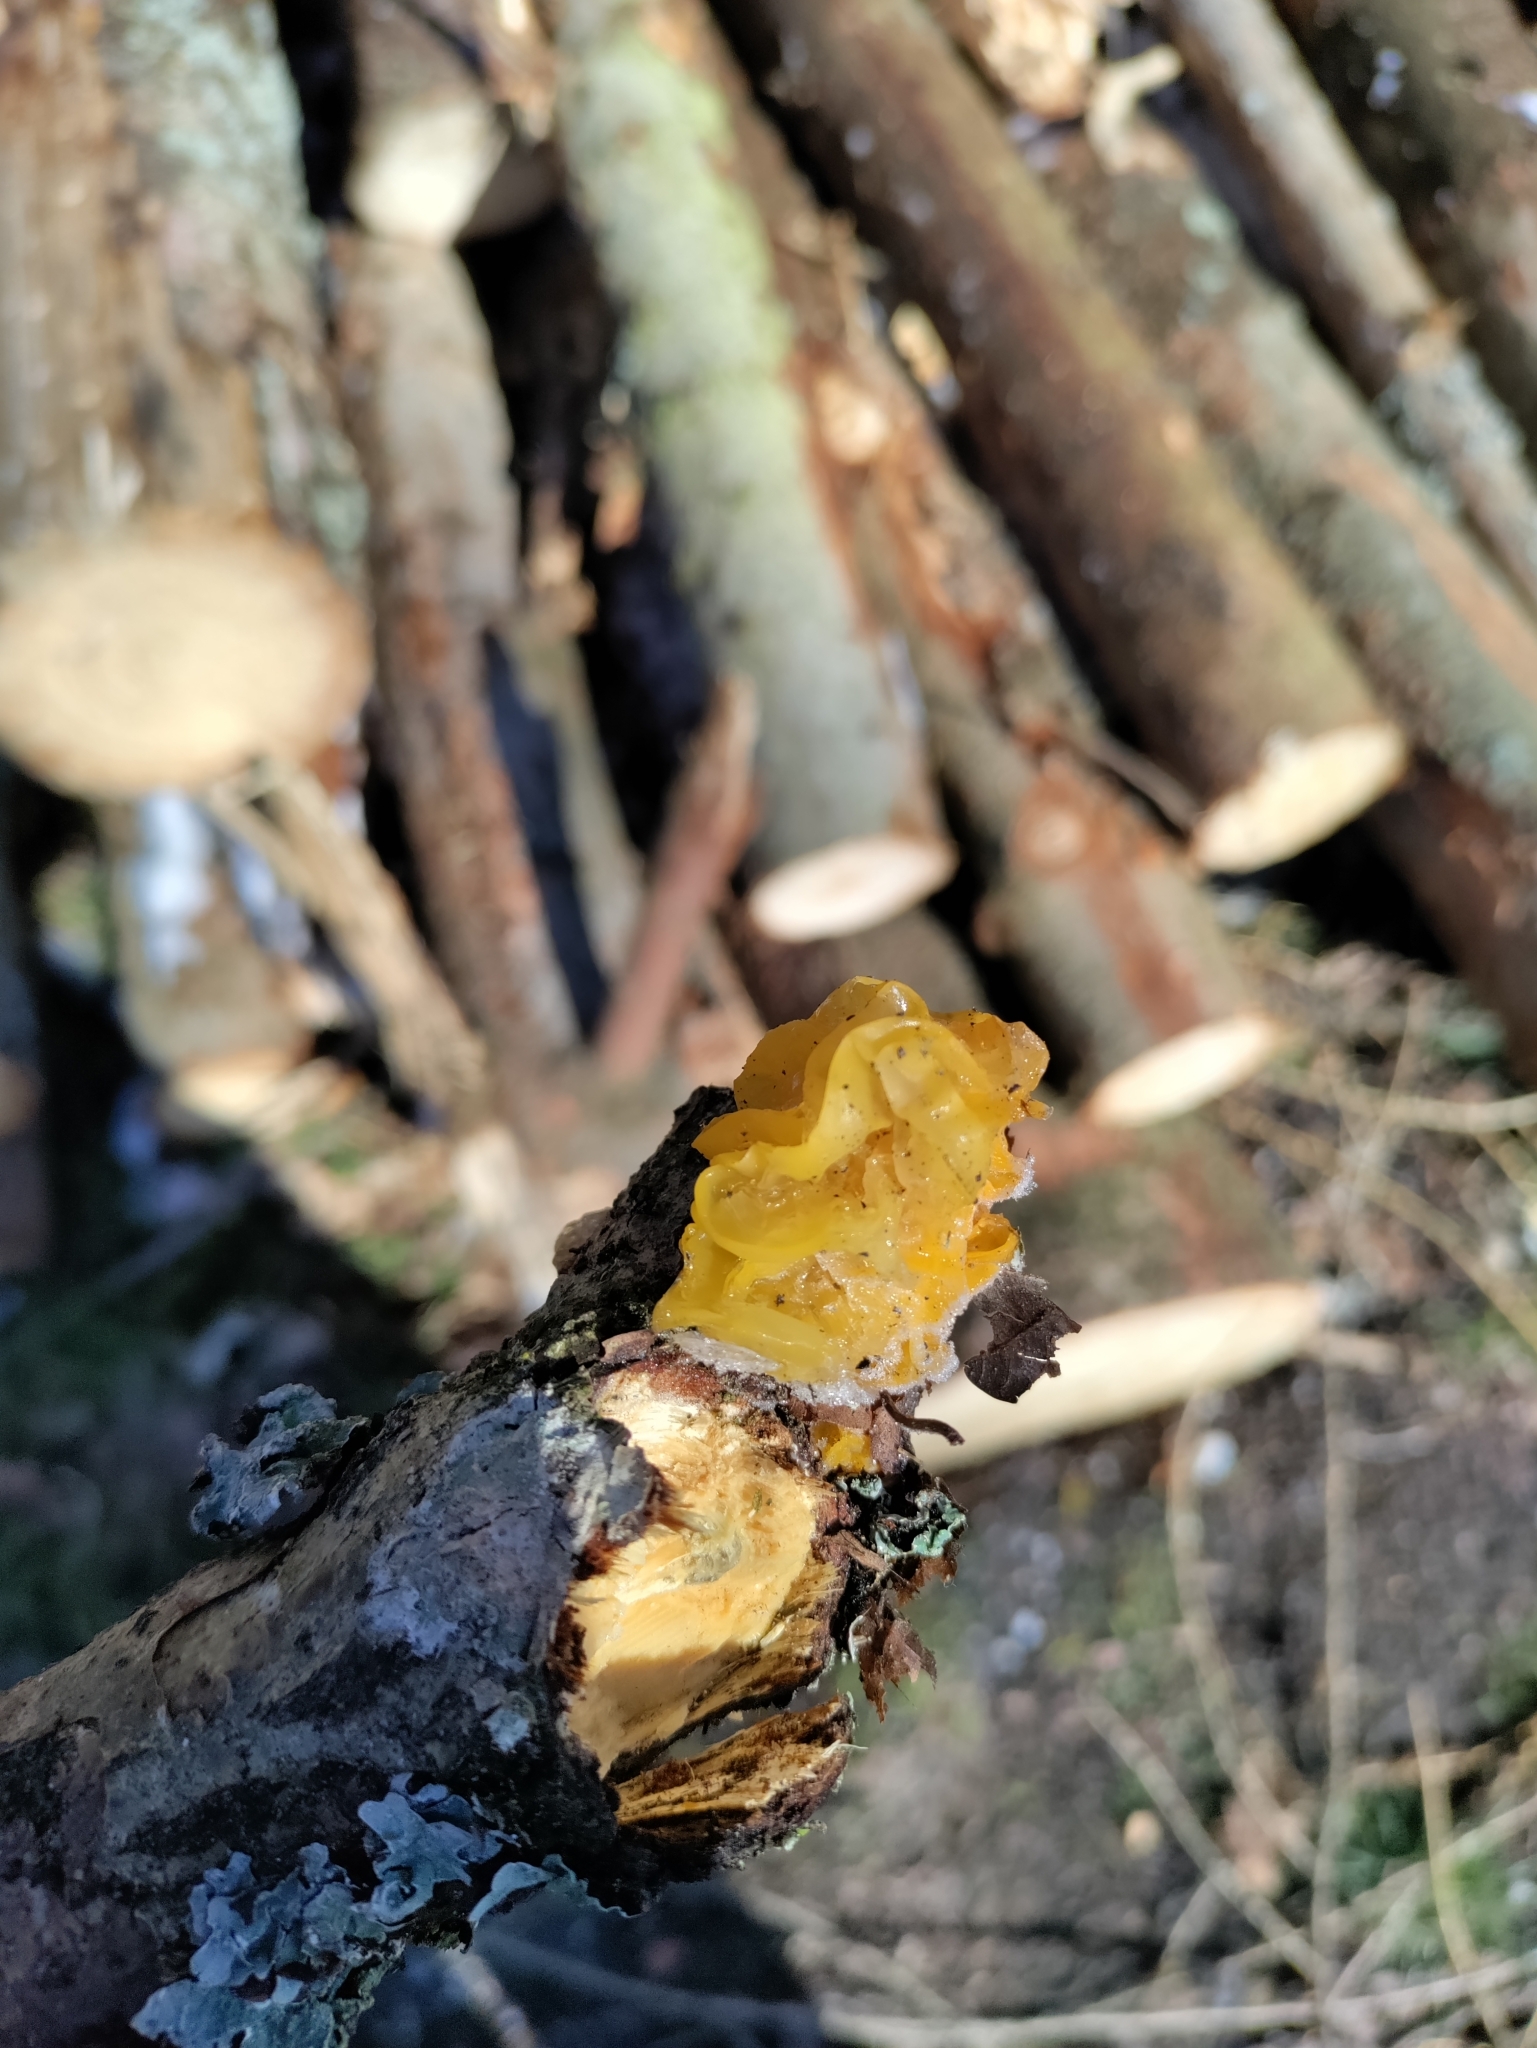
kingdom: Fungi
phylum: Basidiomycota
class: Tremellomycetes
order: Tremellales
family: Tremellaceae
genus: Tremella
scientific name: Tremella mesenterica
